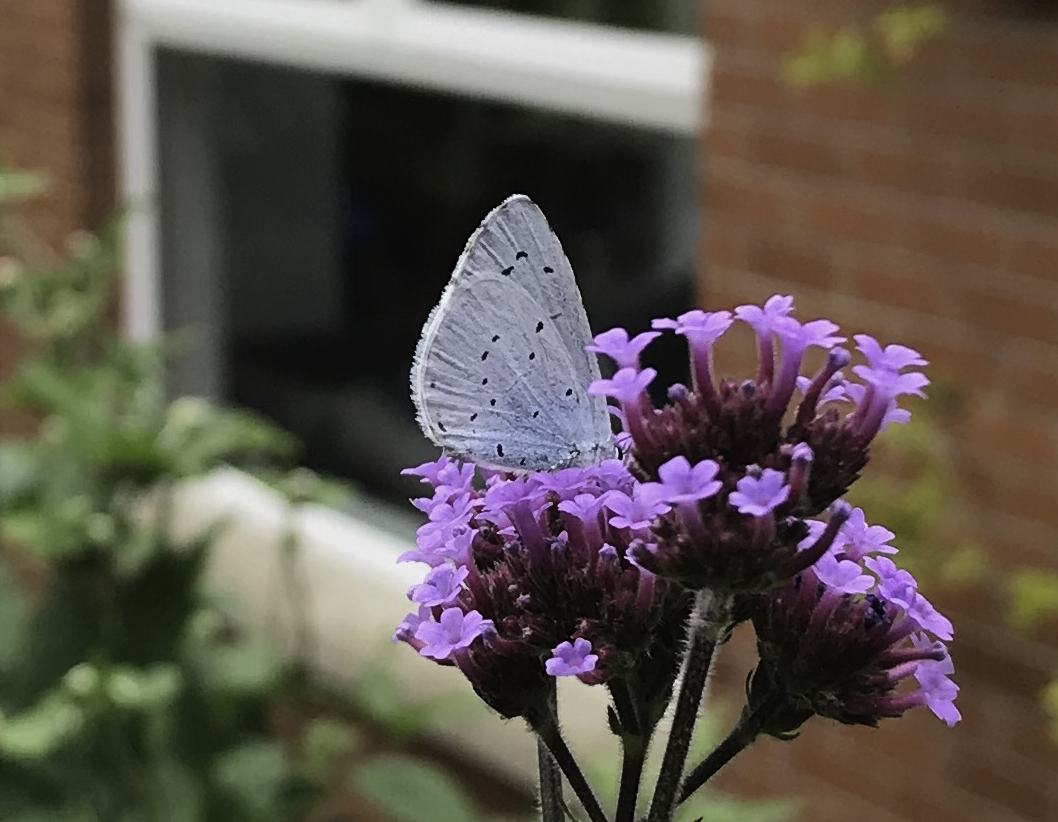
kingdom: Animalia
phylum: Arthropoda
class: Insecta
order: Lepidoptera
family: Lycaenidae
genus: Celastrina
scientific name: Celastrina argiolus
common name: Holly blue
